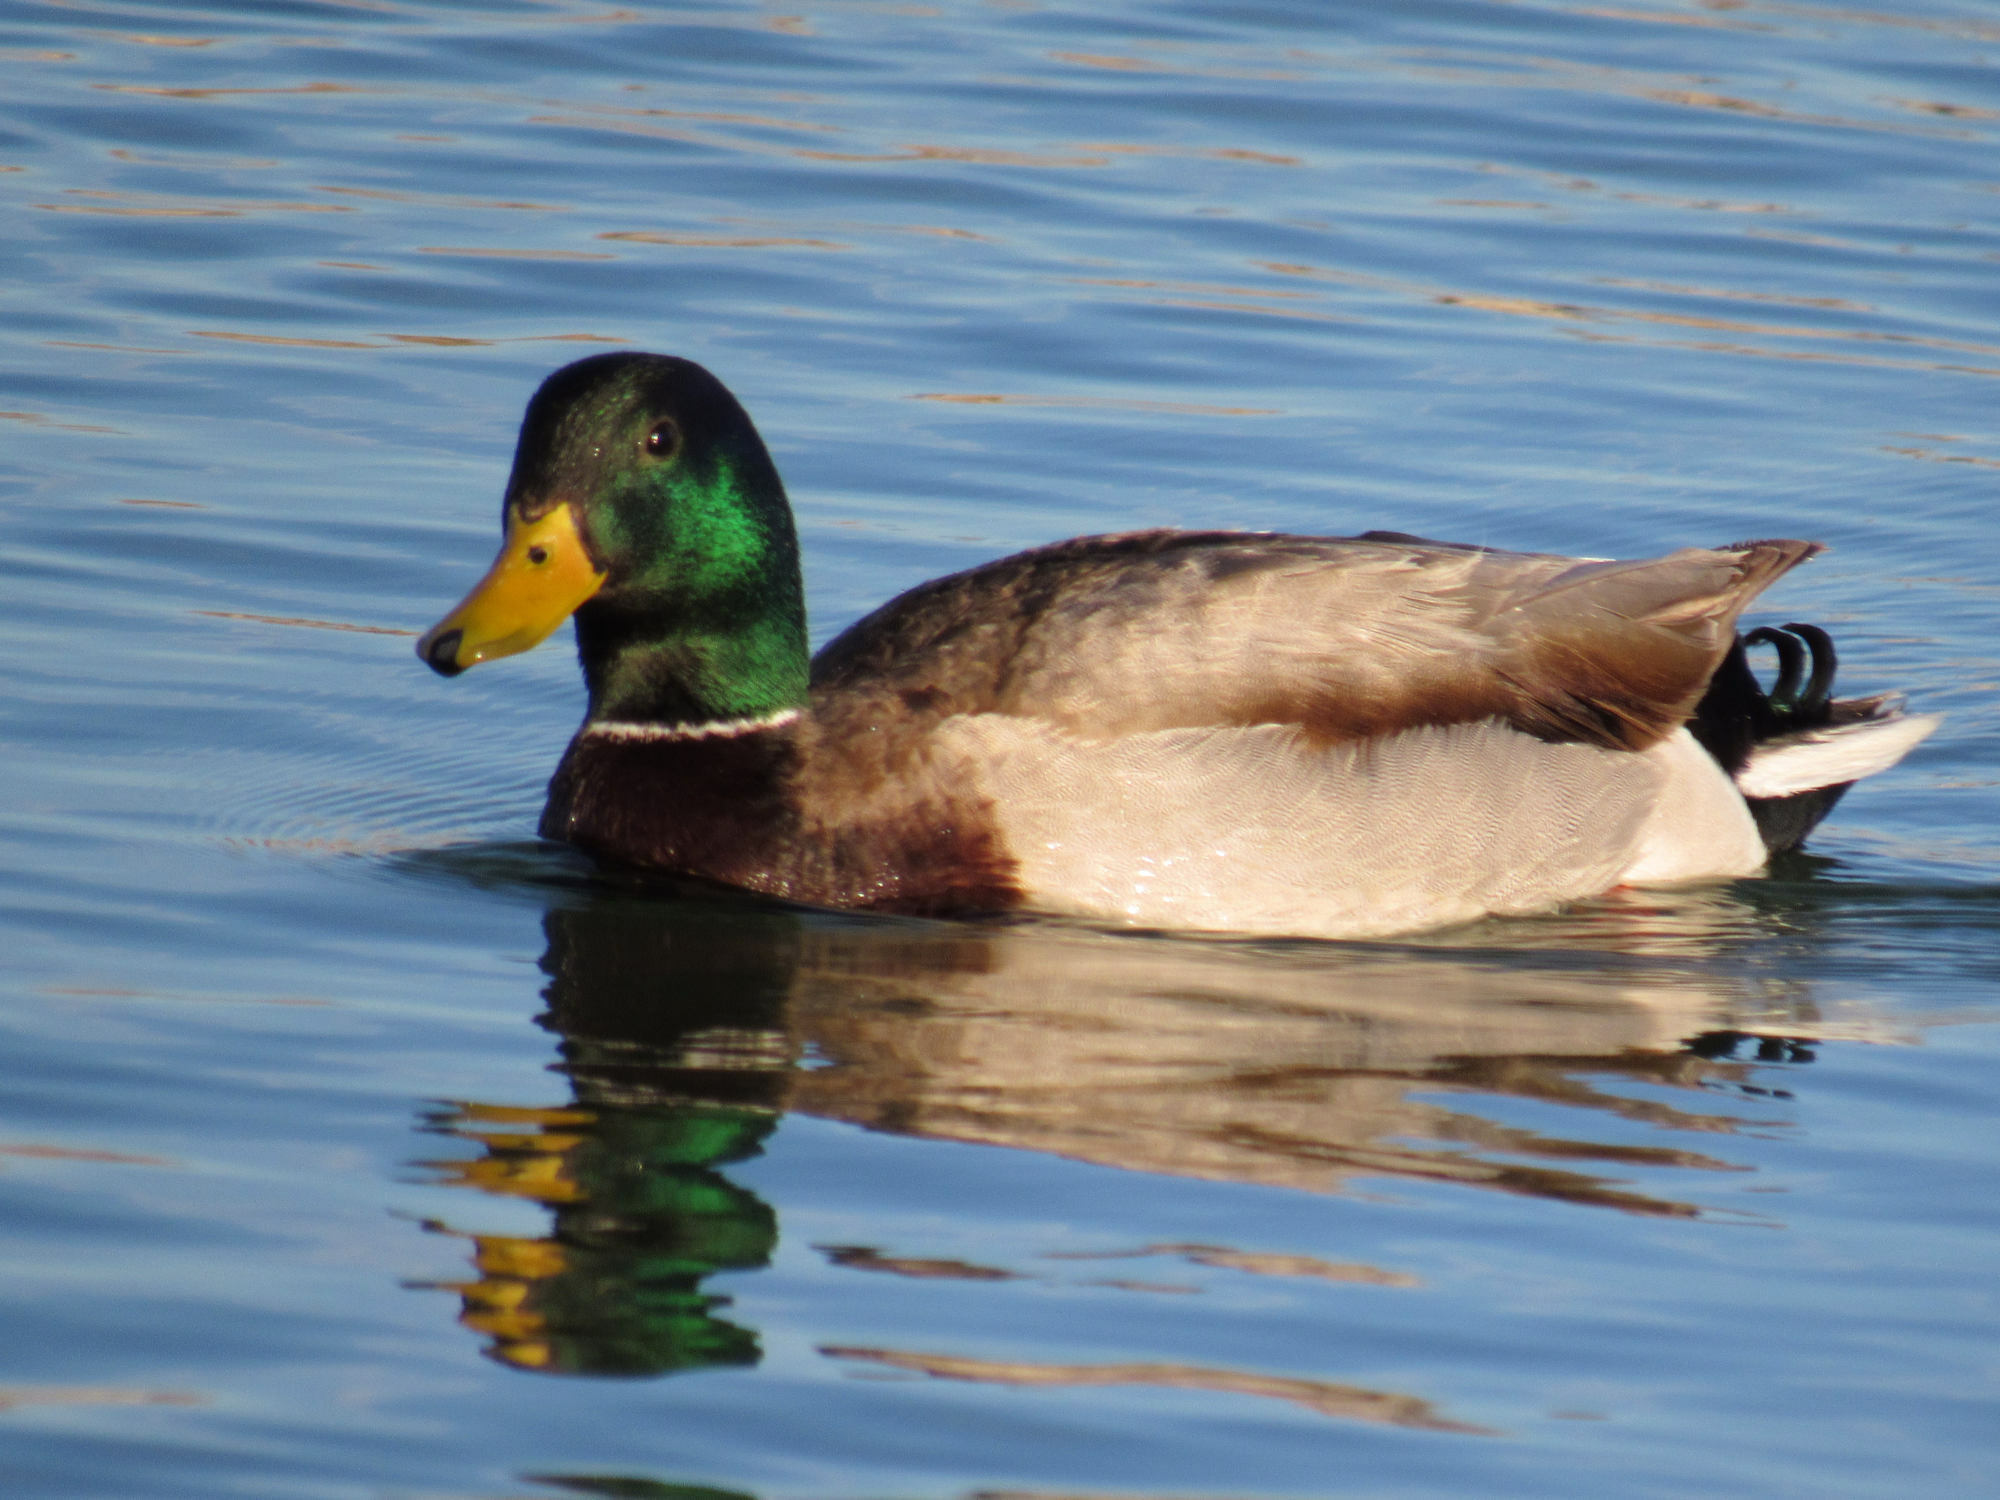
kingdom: Animalia
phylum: Chordata
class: Aves
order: Anseriformes
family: Anatidae
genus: Anas
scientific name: Anas platyrhynchos
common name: Mallard
